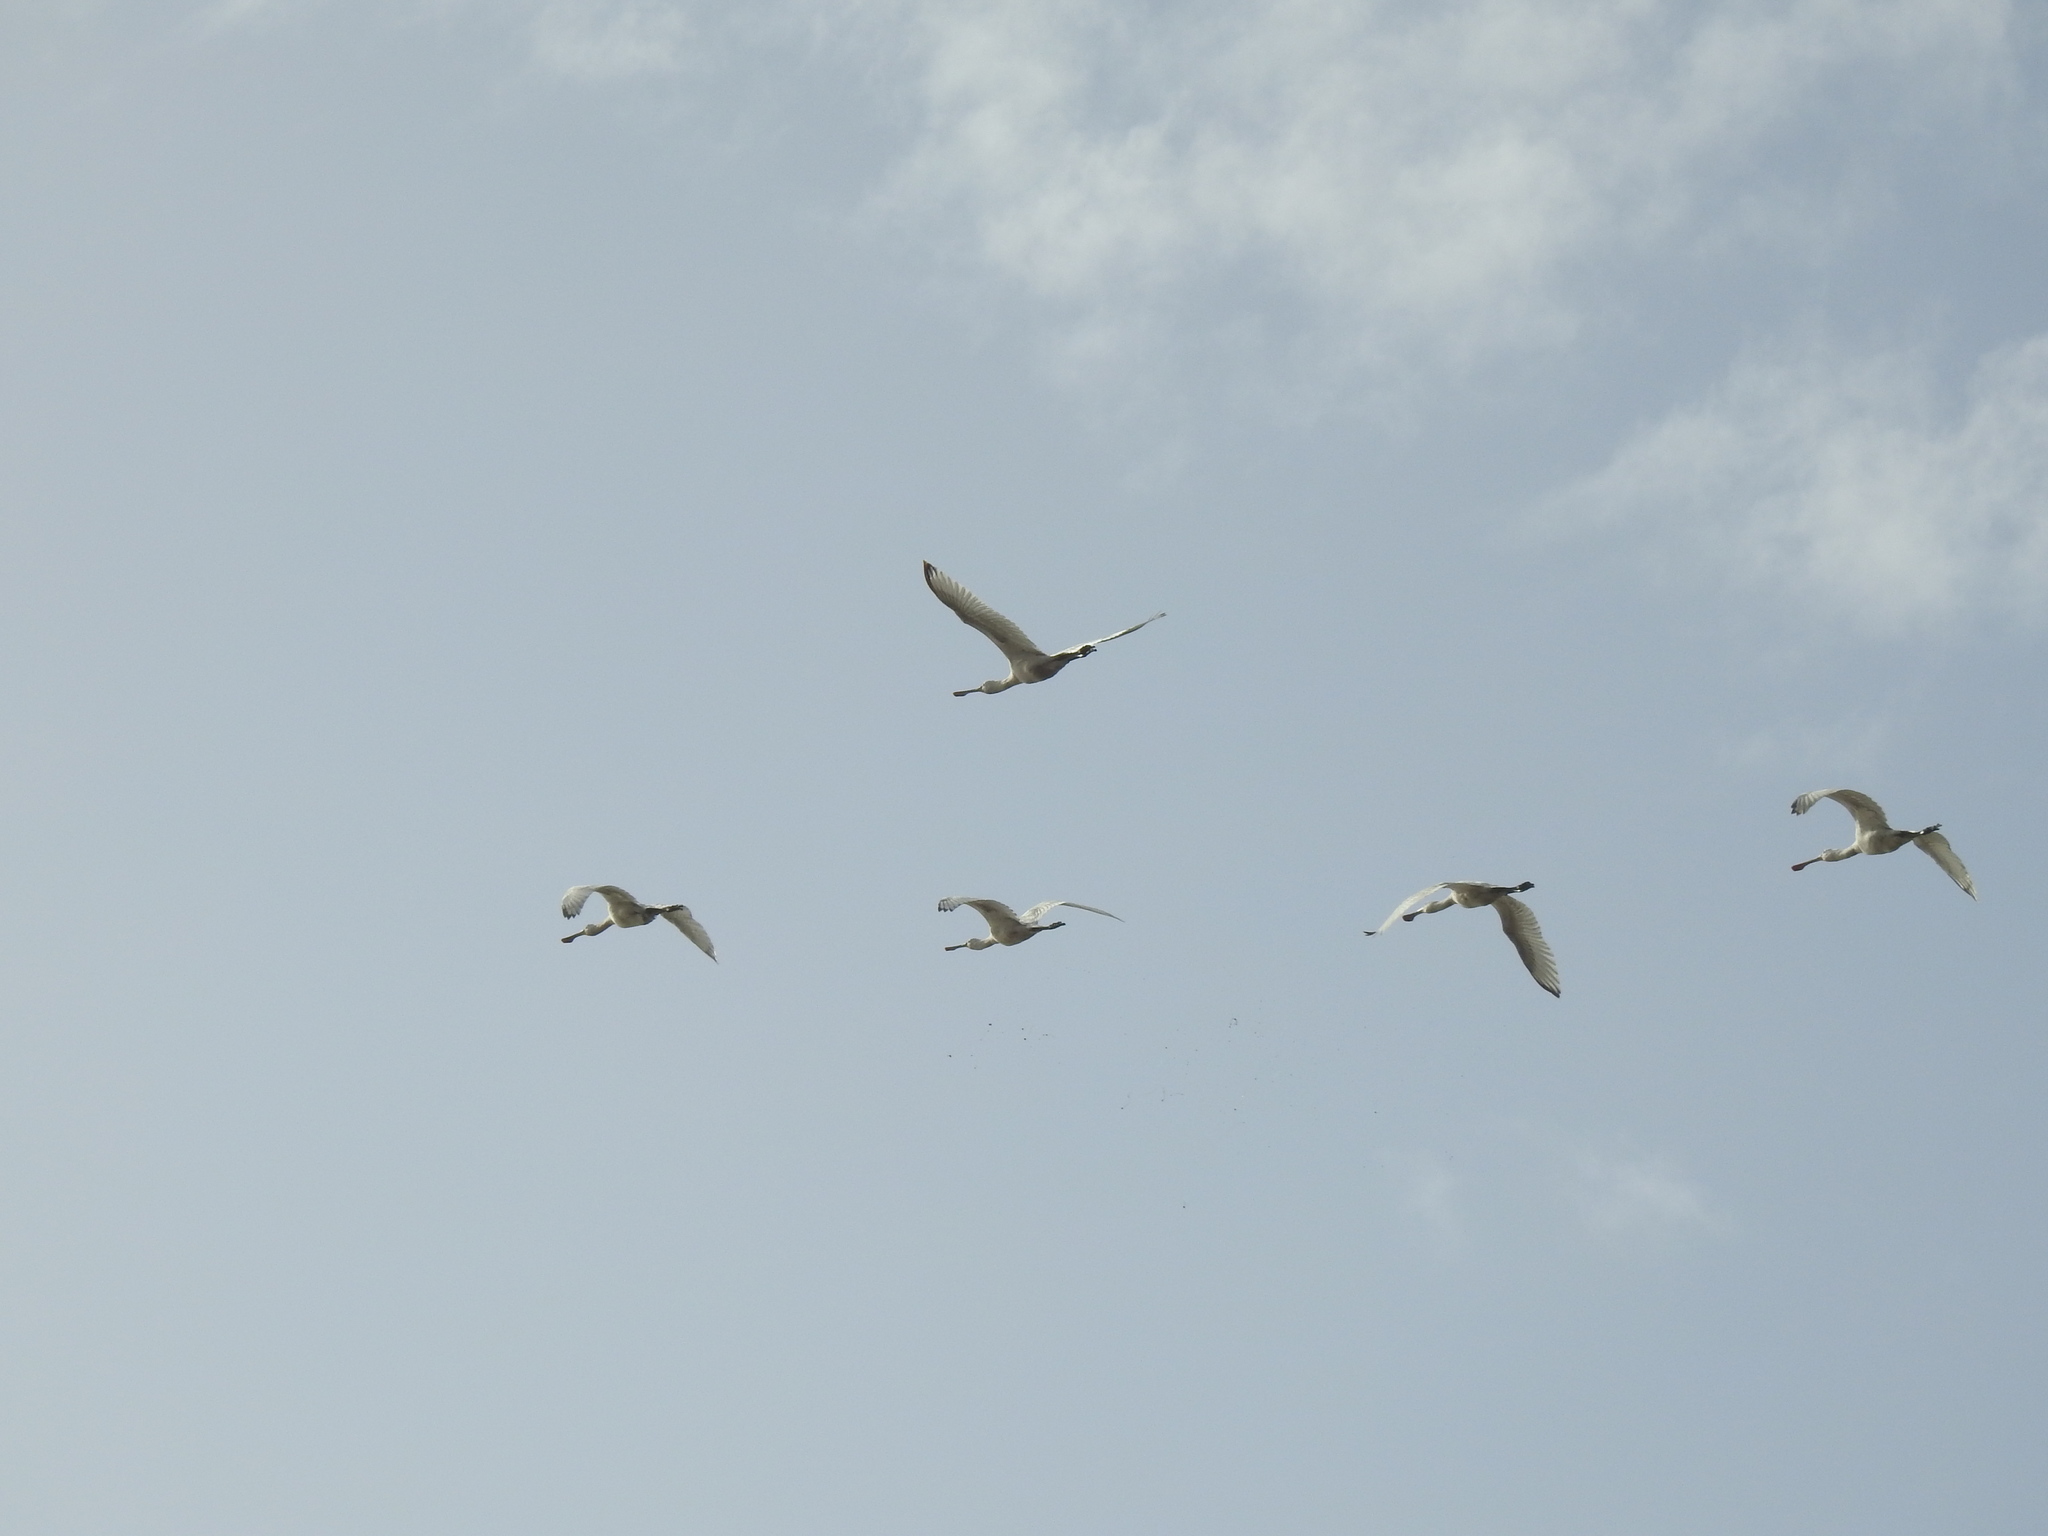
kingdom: Animalia
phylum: Chordata
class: Aves
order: Pelecaniformes
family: Threskiornithidae
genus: Platalea
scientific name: Platalea leucorodia
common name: Eurasian spoonbill
